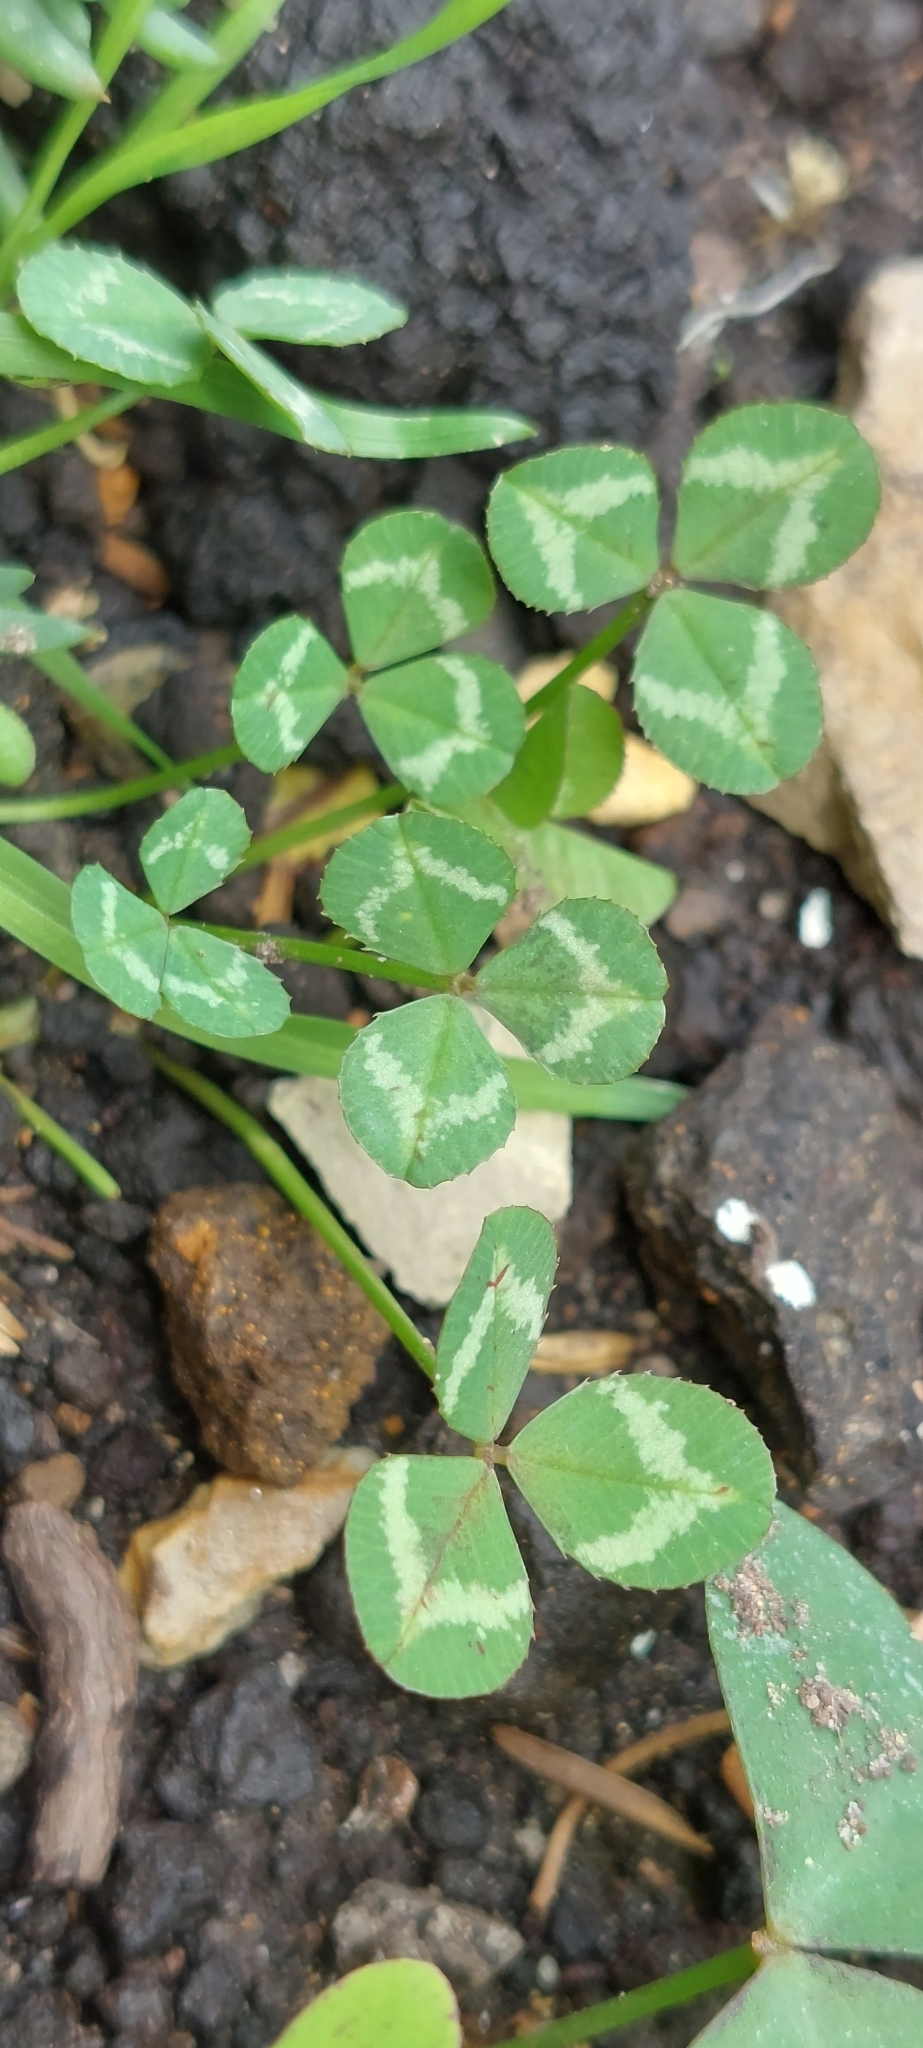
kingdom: Plantae
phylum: Tracheophyta
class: Magnoliopsida
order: Fabales
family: Fabaceae
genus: Trifolium
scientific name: Trifolium repens
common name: White clover
